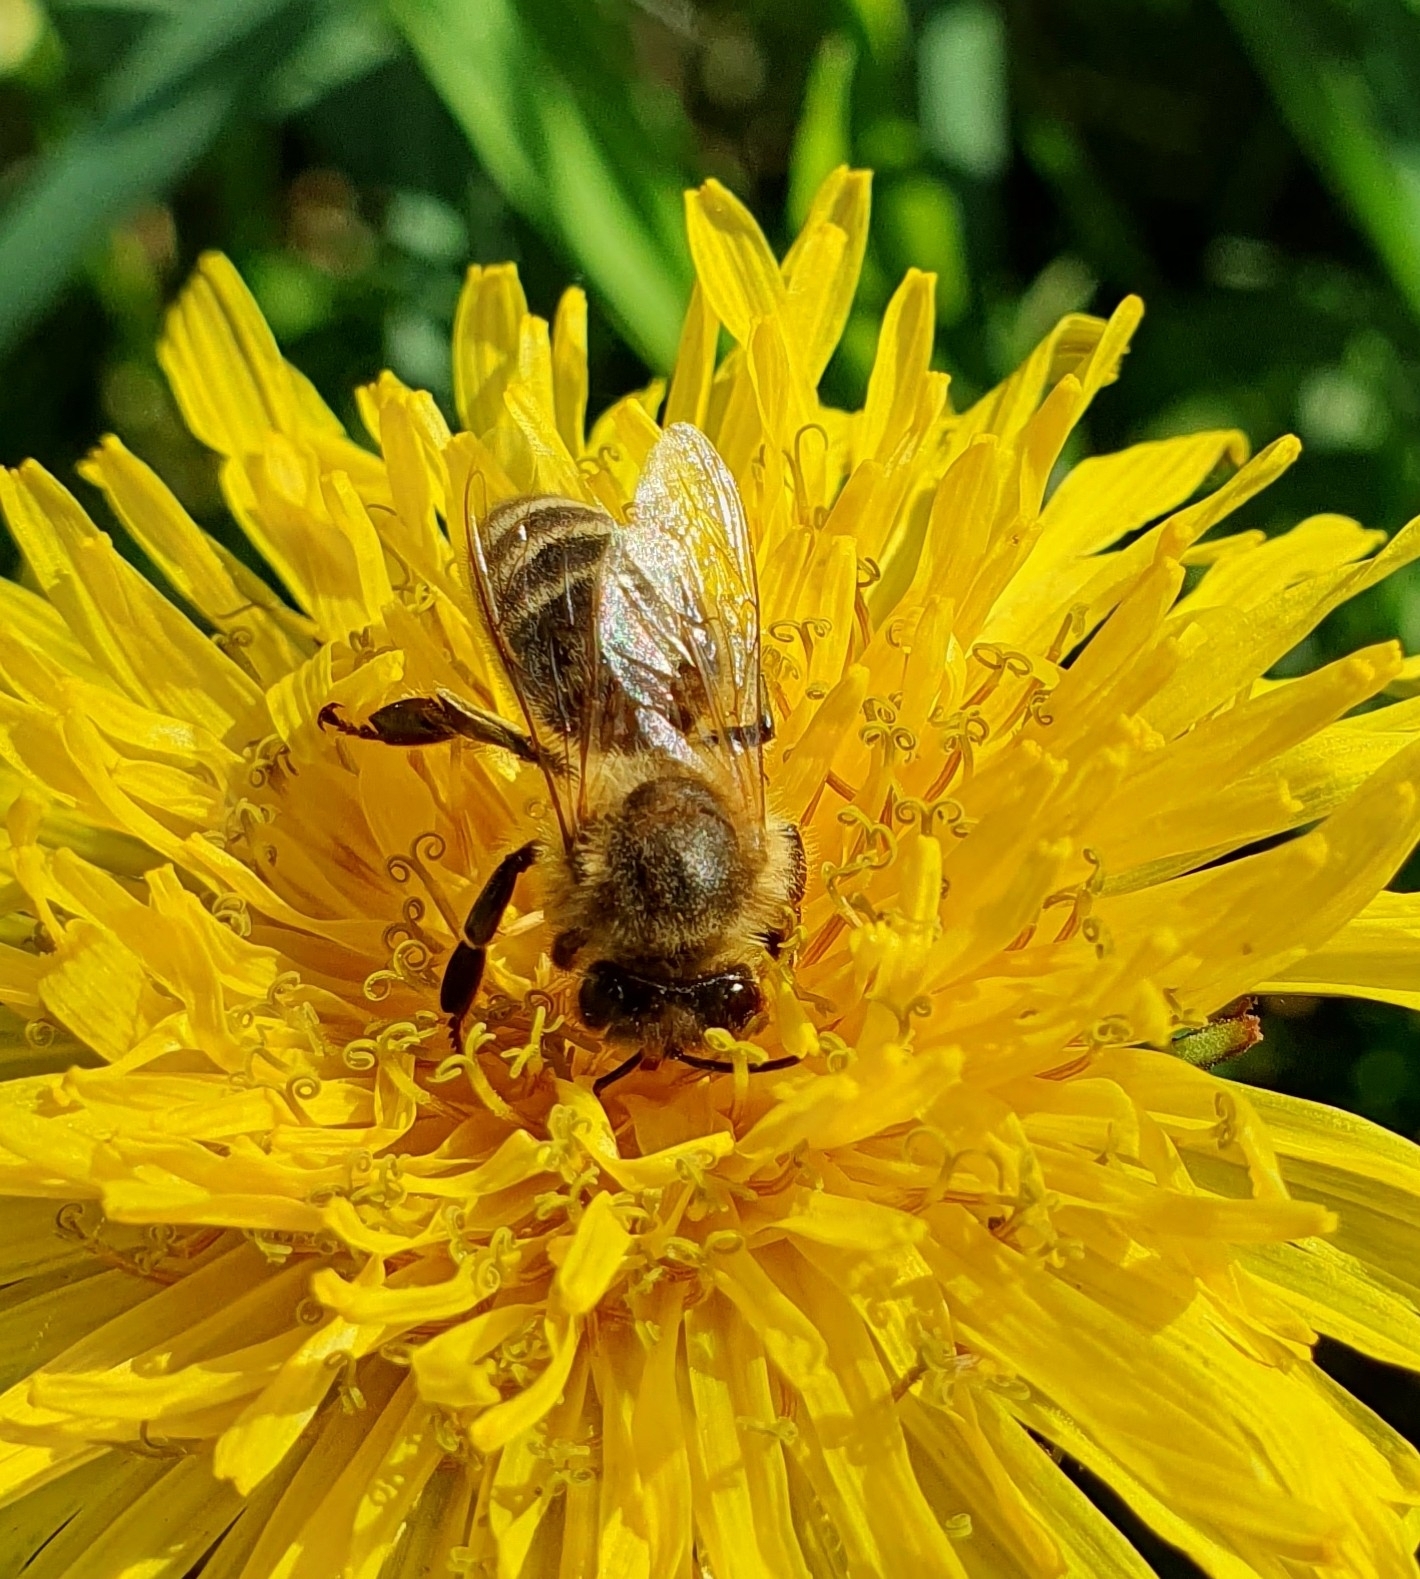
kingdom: Animalia
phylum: Arthropoda
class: Insecta
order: Hymenoptera
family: Apidae
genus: Apis
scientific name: Apis mellifera
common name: Honey bee
